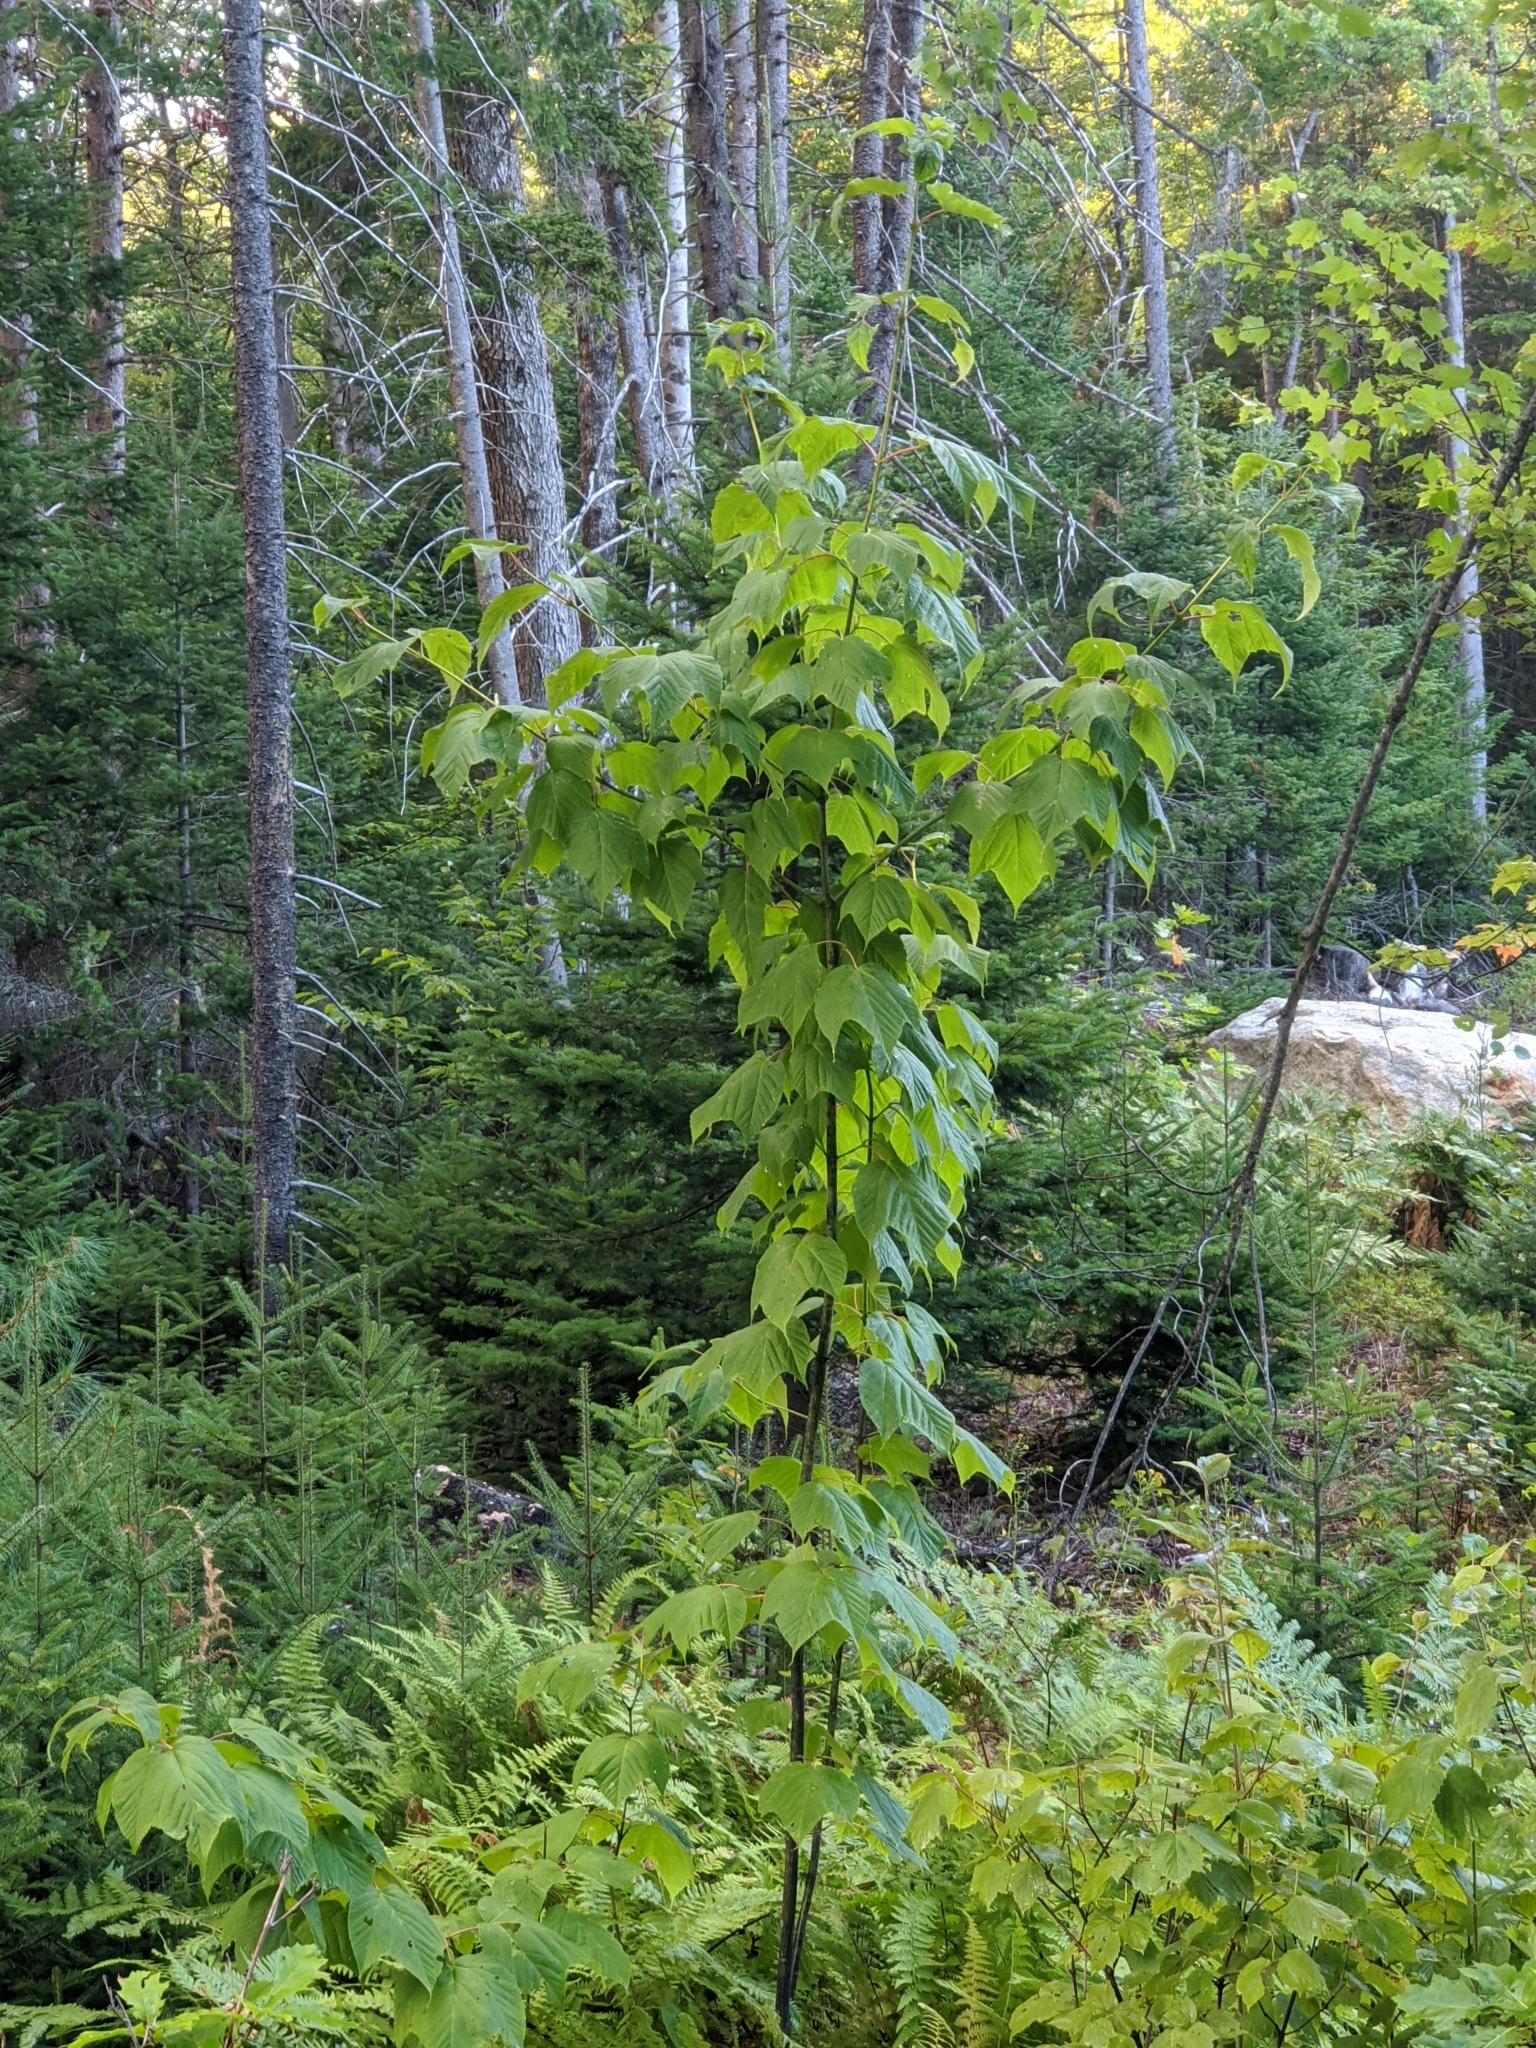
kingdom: Plantae
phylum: Tracheophyta
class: Magnoliopsida
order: Sapindales
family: Sapindaceae
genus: Acer
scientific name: Acer pensylvanicum
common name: Moosewood
